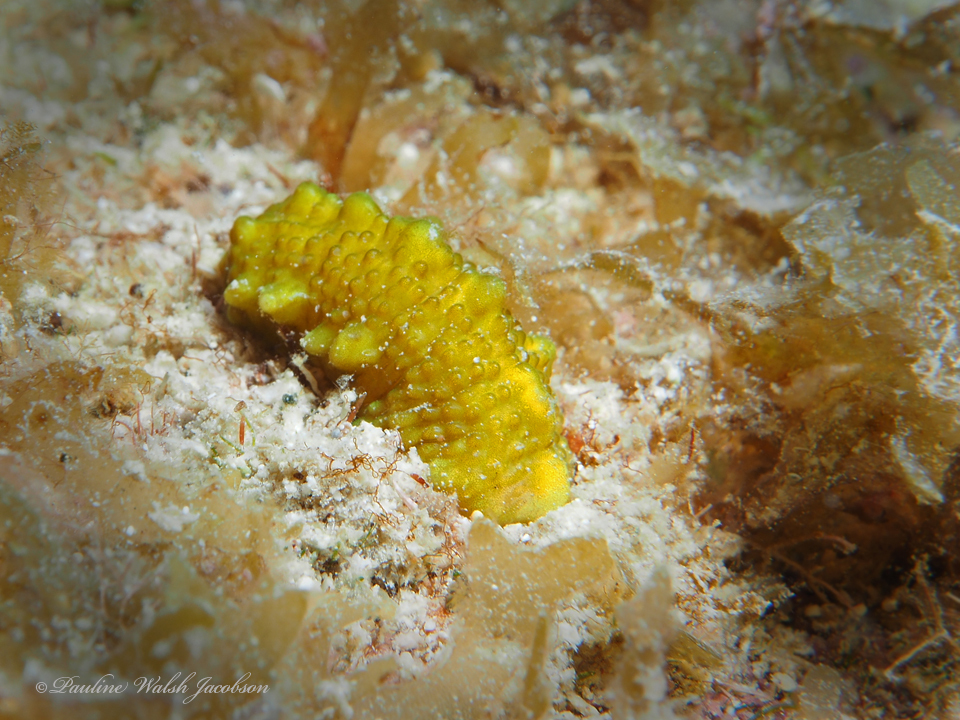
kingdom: Animalia
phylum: Cnidaria
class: Anthozoa
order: Zoantharia
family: Zoanthidae
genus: Isaurus
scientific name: Isaurus tuberculatus
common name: Duchassaing's colonial anemone
